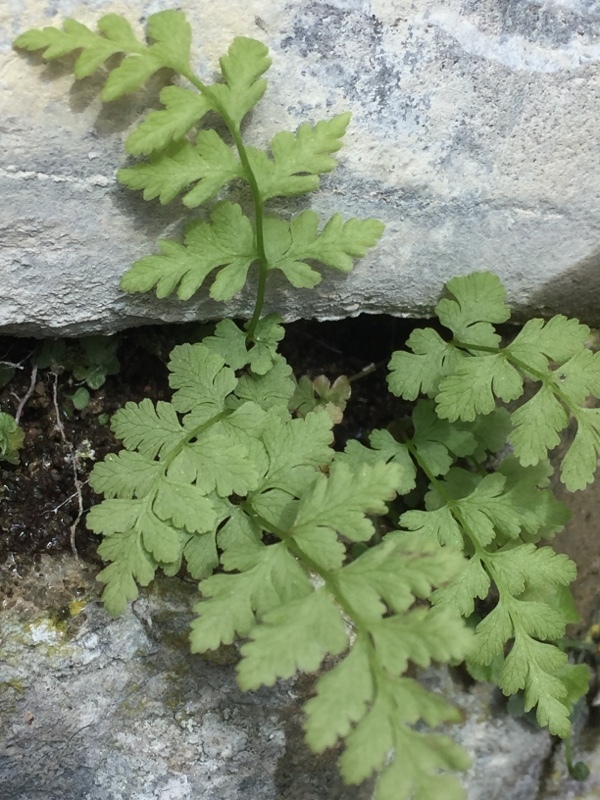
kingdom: Plantae
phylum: Tracheophyta
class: Polypodiopsida
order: Polypodiales
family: Cystopteridaceae
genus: Cystopteris
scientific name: Cystopteris fragilis
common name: Brittle bladder fern
